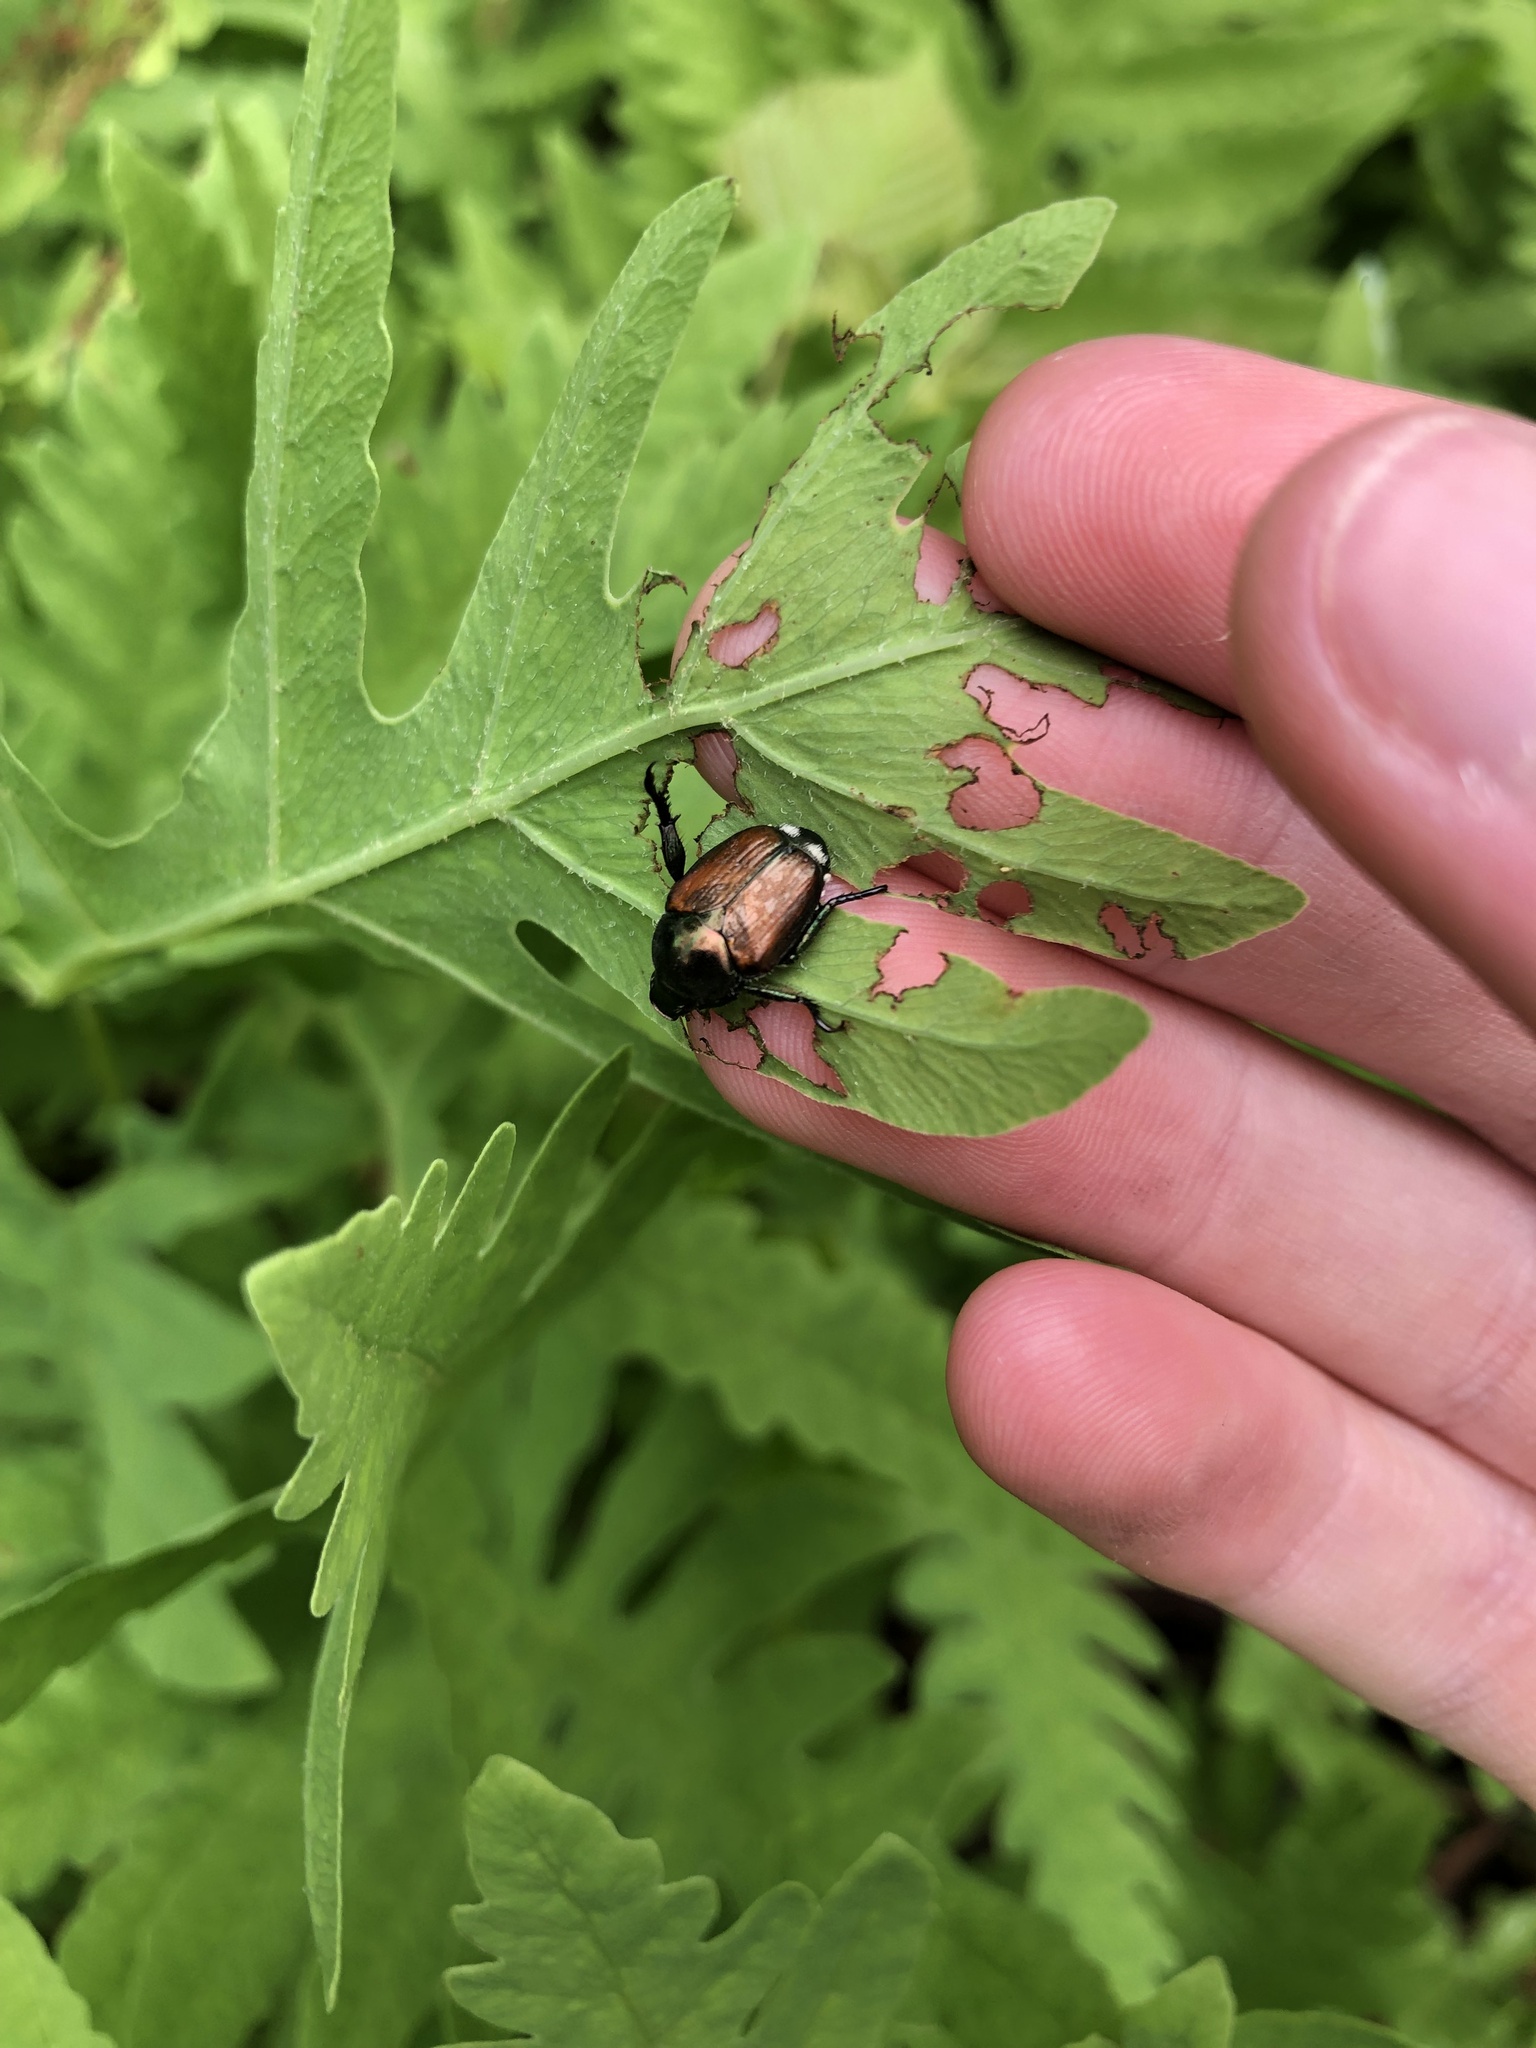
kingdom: Animalia
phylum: Arthropoda
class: Insecta
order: Coleoptera
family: Scarabaeidae
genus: Popillia
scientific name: Popillia japonica
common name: Japanese beetle
